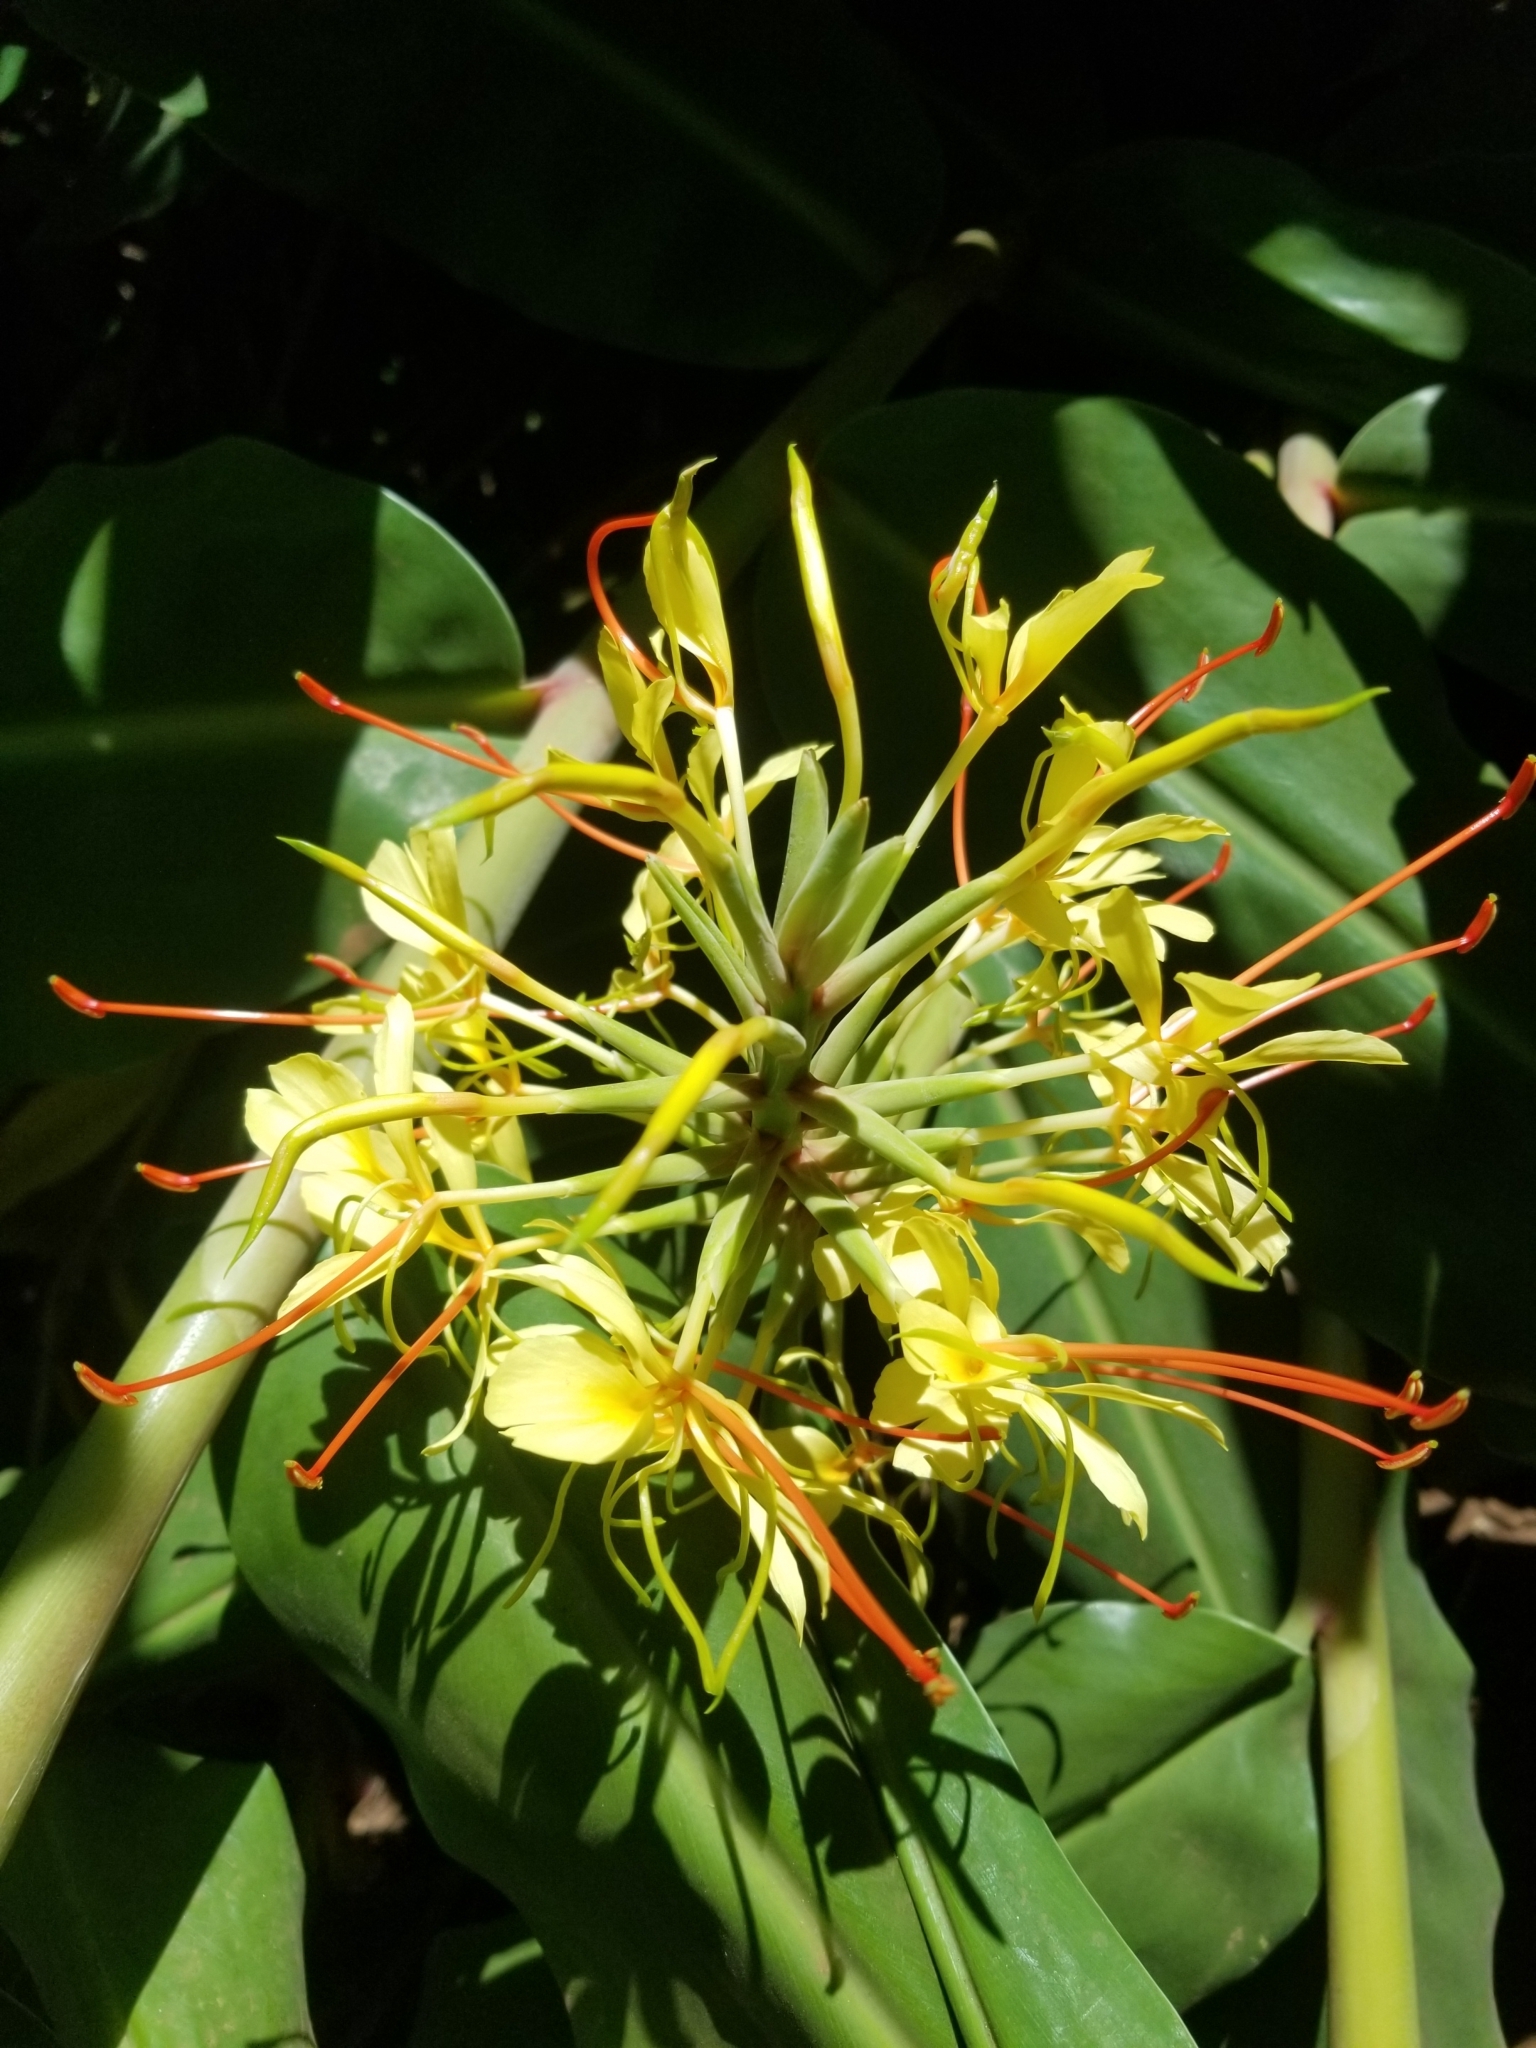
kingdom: Plantae
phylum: Tracheophyta
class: Liliopsida
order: Zingiberales
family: Zingiberaceae
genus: Hedychium
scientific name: Hedychium gardnerianum
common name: Himalayan ginger
